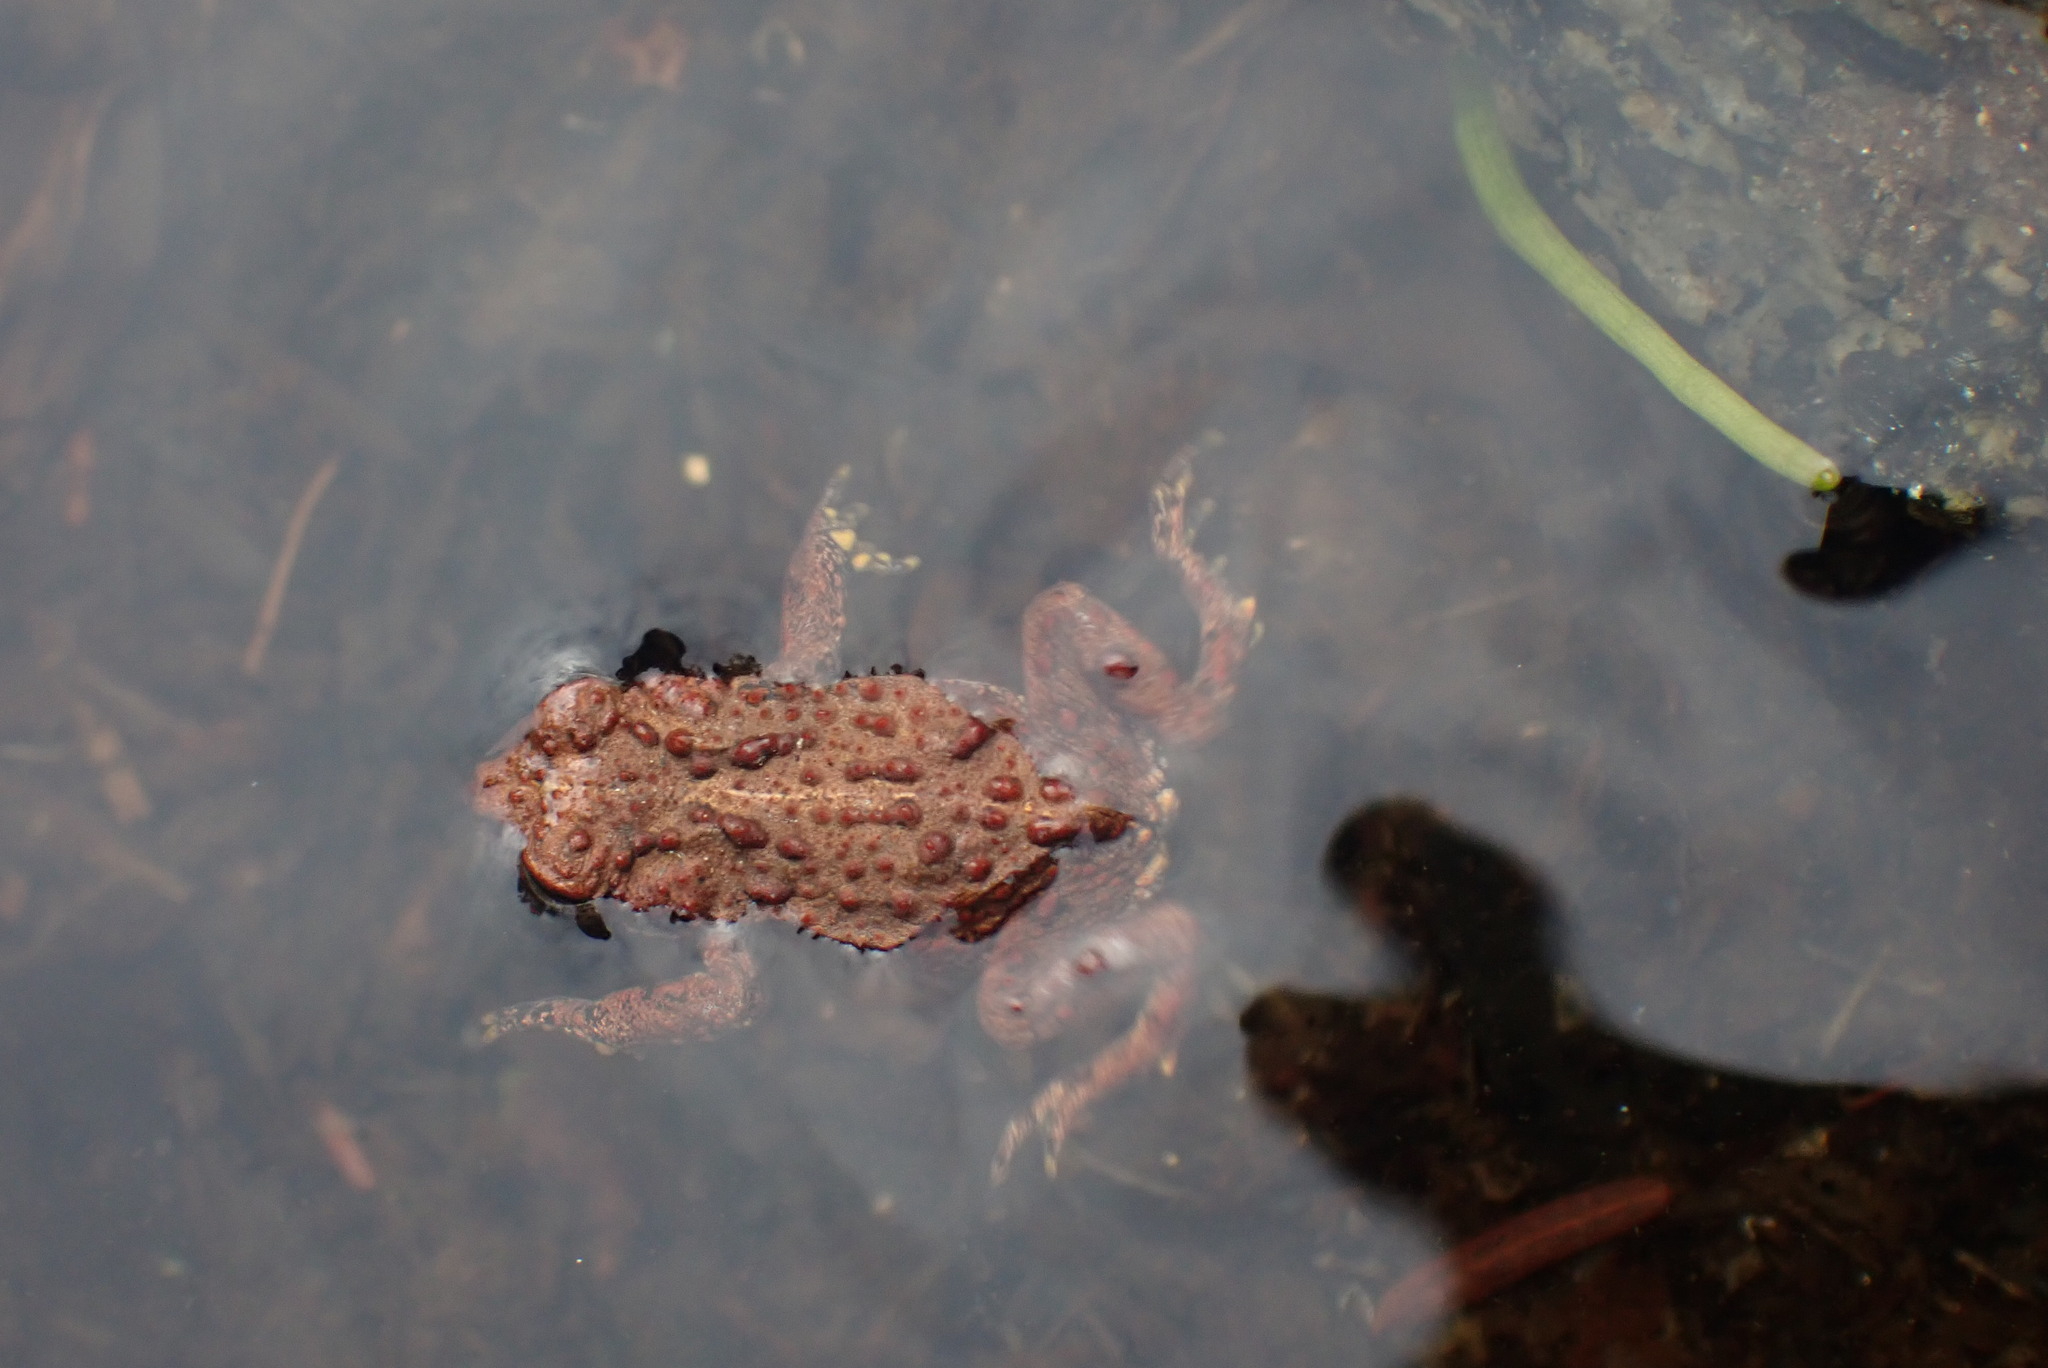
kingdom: Animalia
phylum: Chordata
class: Amphibia
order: Anura
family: Bufonidae
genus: Anaxyrus
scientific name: Anaxyrus boreas
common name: Western toad
